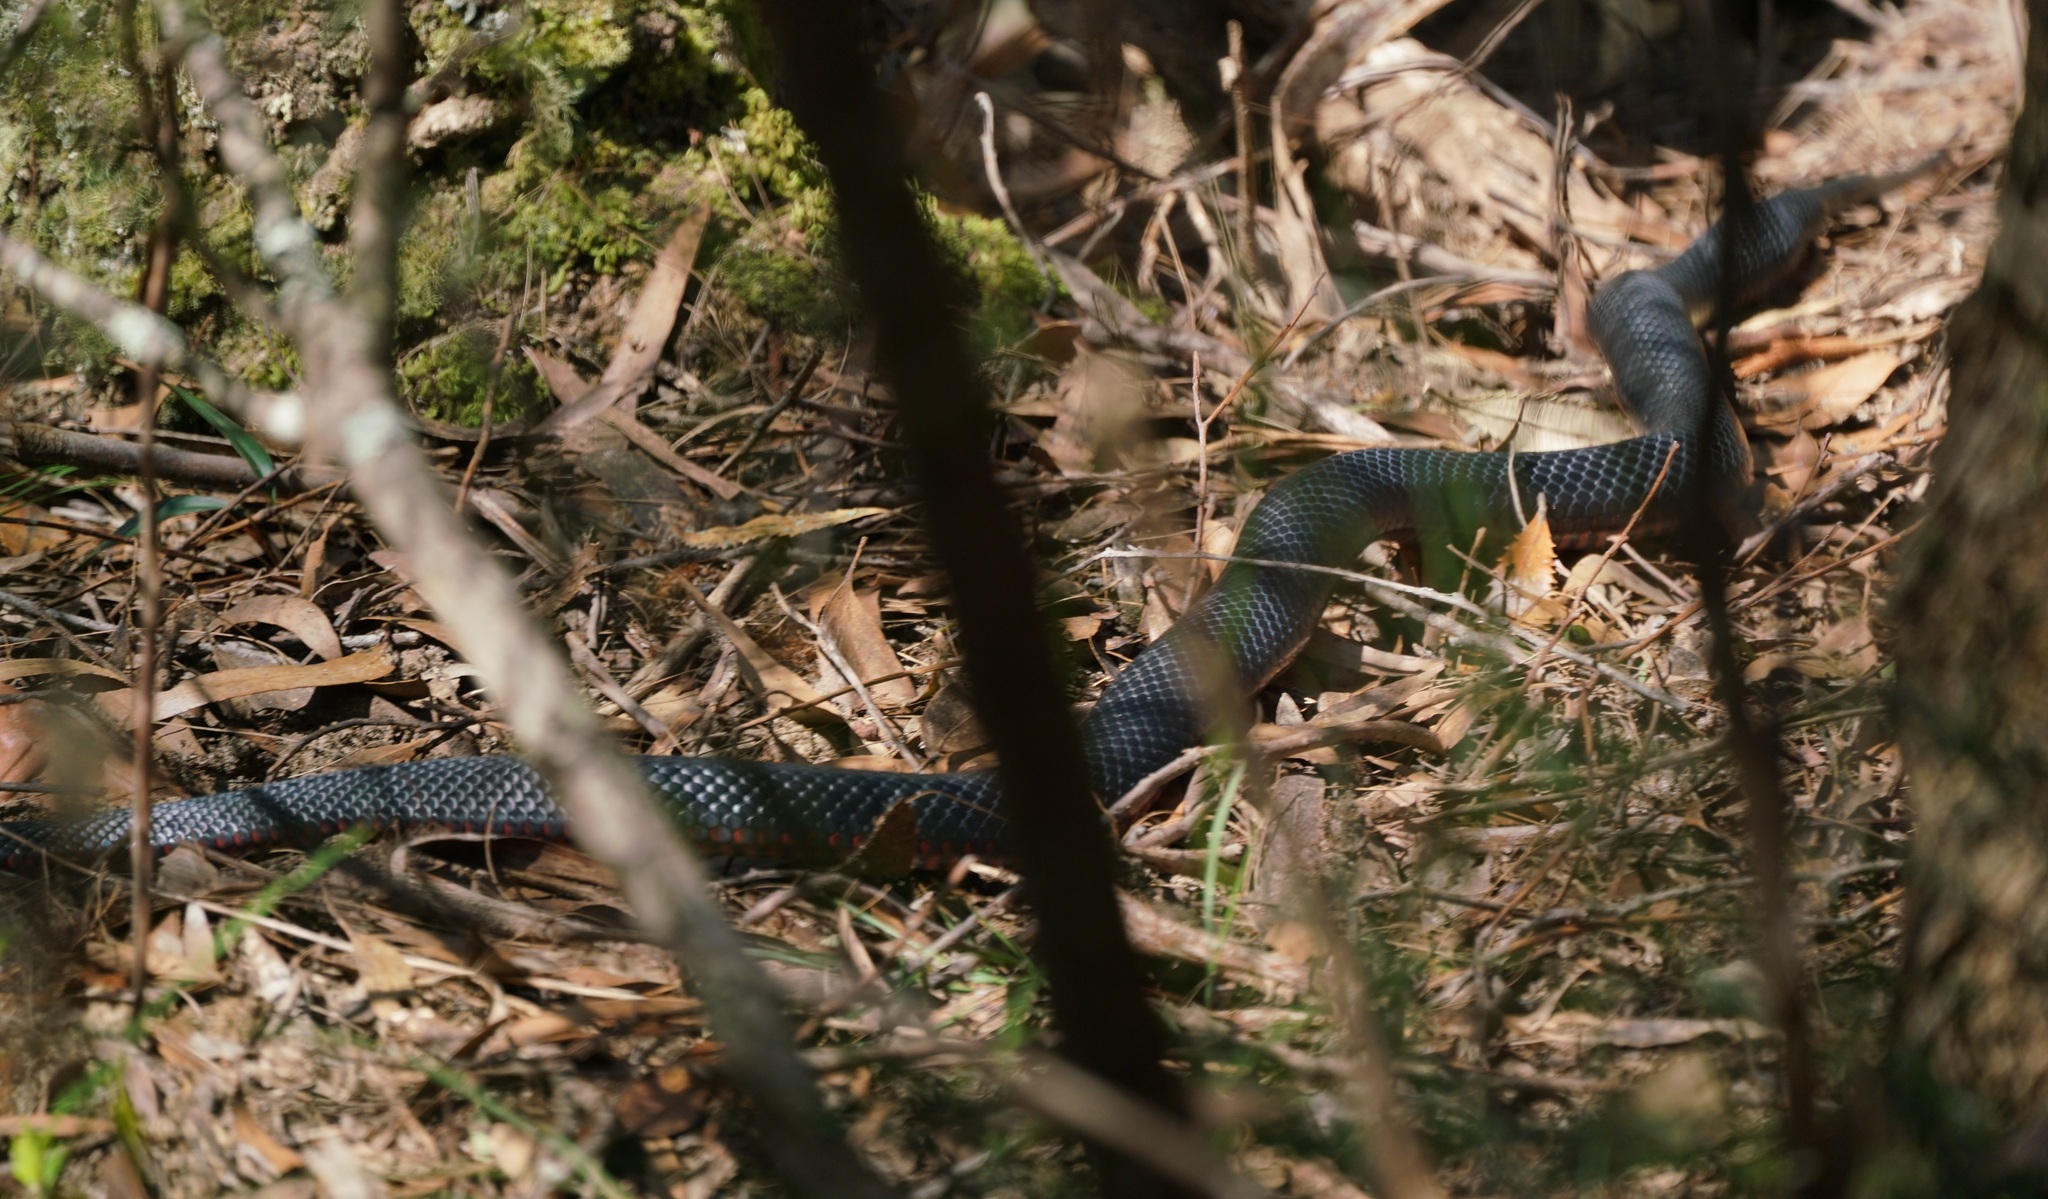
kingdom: Animalia
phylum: Chordata
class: Squamata
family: Elapidae
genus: Pseudechis
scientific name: Pseudechis porphyriacus
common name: Australian black snake
